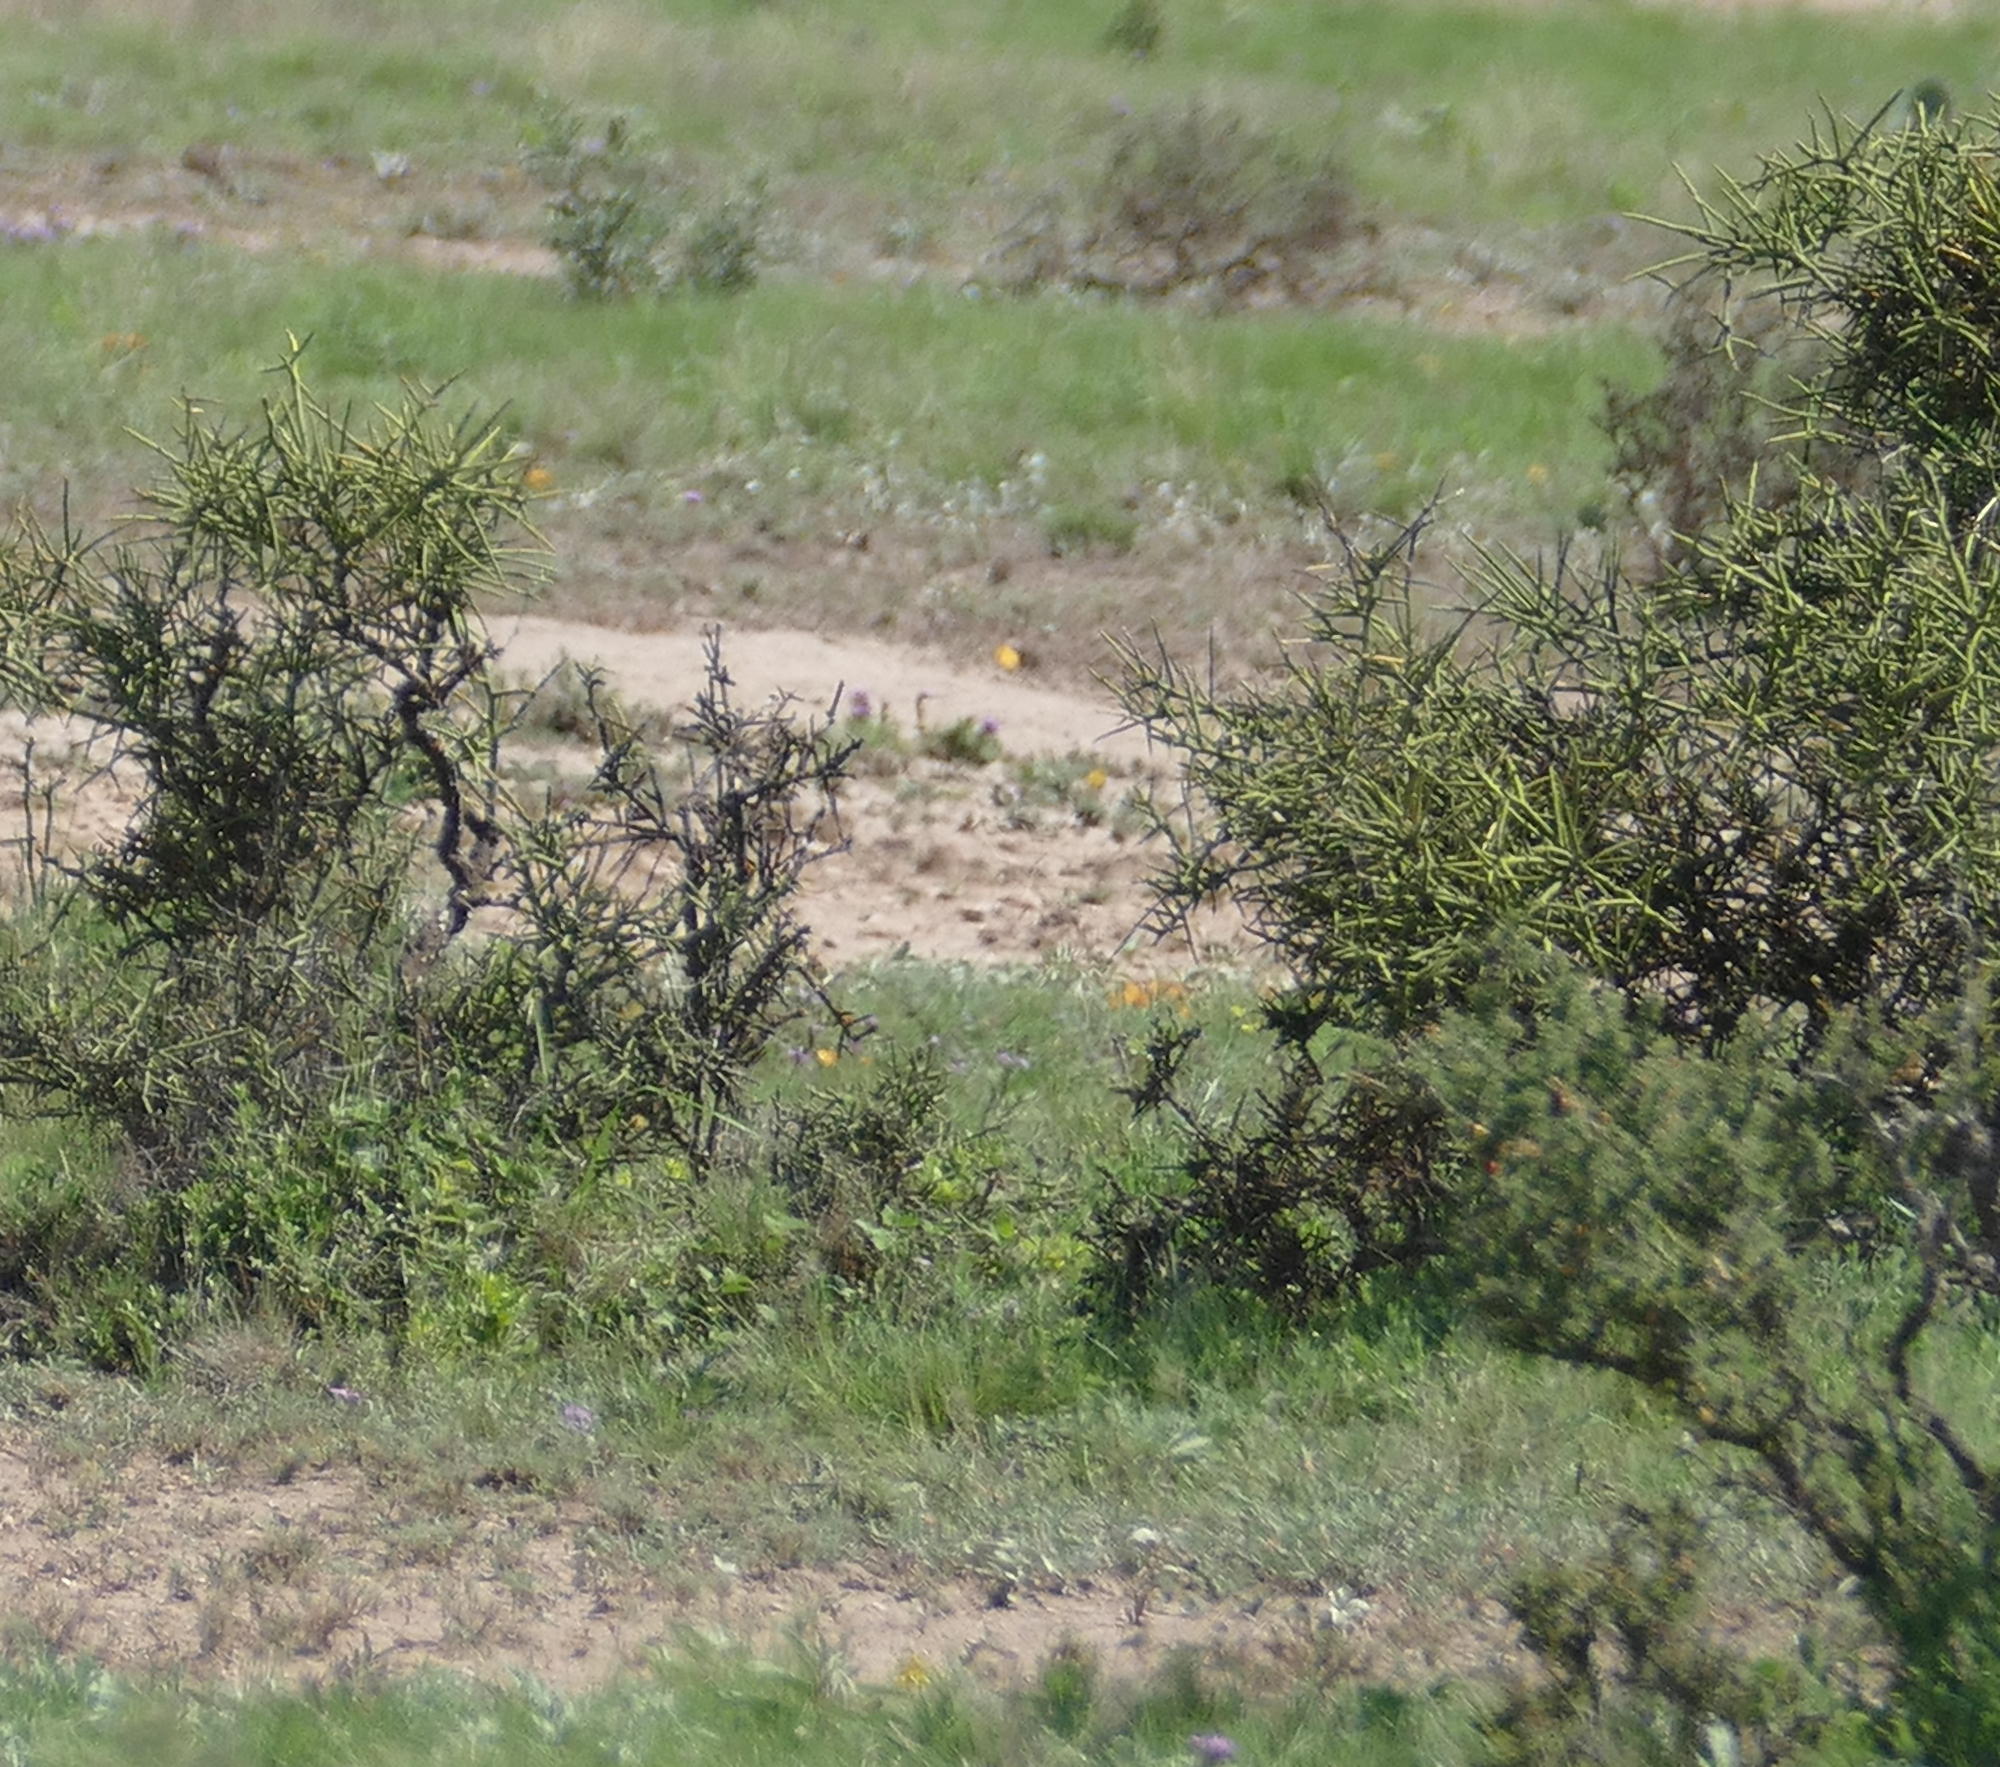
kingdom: Plantae
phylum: Tracheophyta
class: Magnoliopsida
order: Brassicales
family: Koeberliniaceae
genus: Koeberlinia
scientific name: Koeberlinia spinosa
